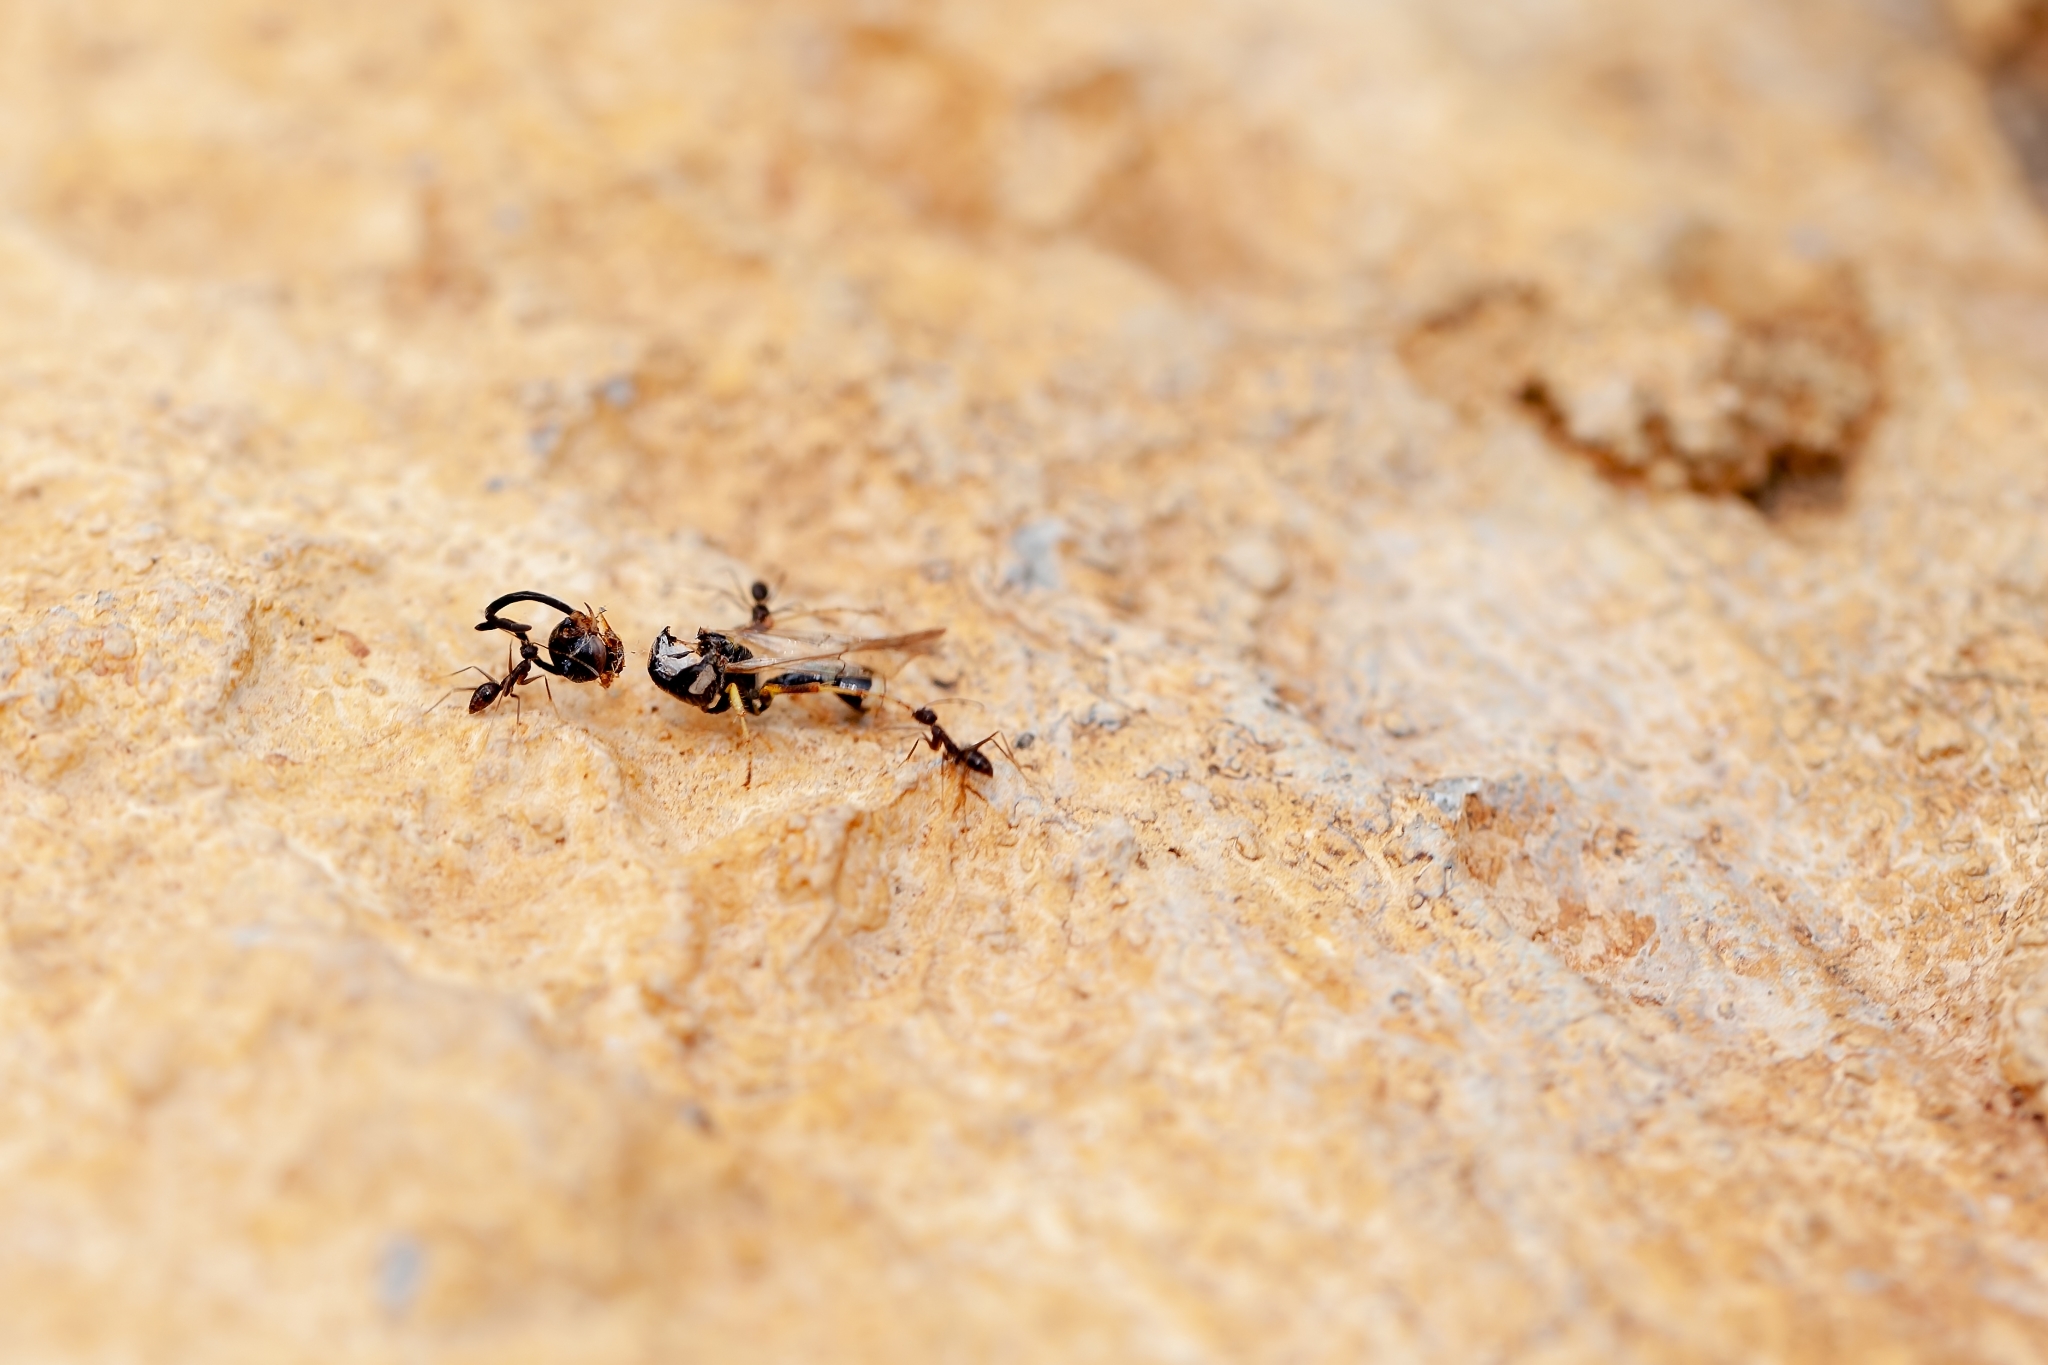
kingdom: Animalia
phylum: Arthropoda
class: Insecta
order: Hymenoptera
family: Formicidae
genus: Paratrechina
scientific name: Paratrechina longicornis
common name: Longhorned crazy ant
